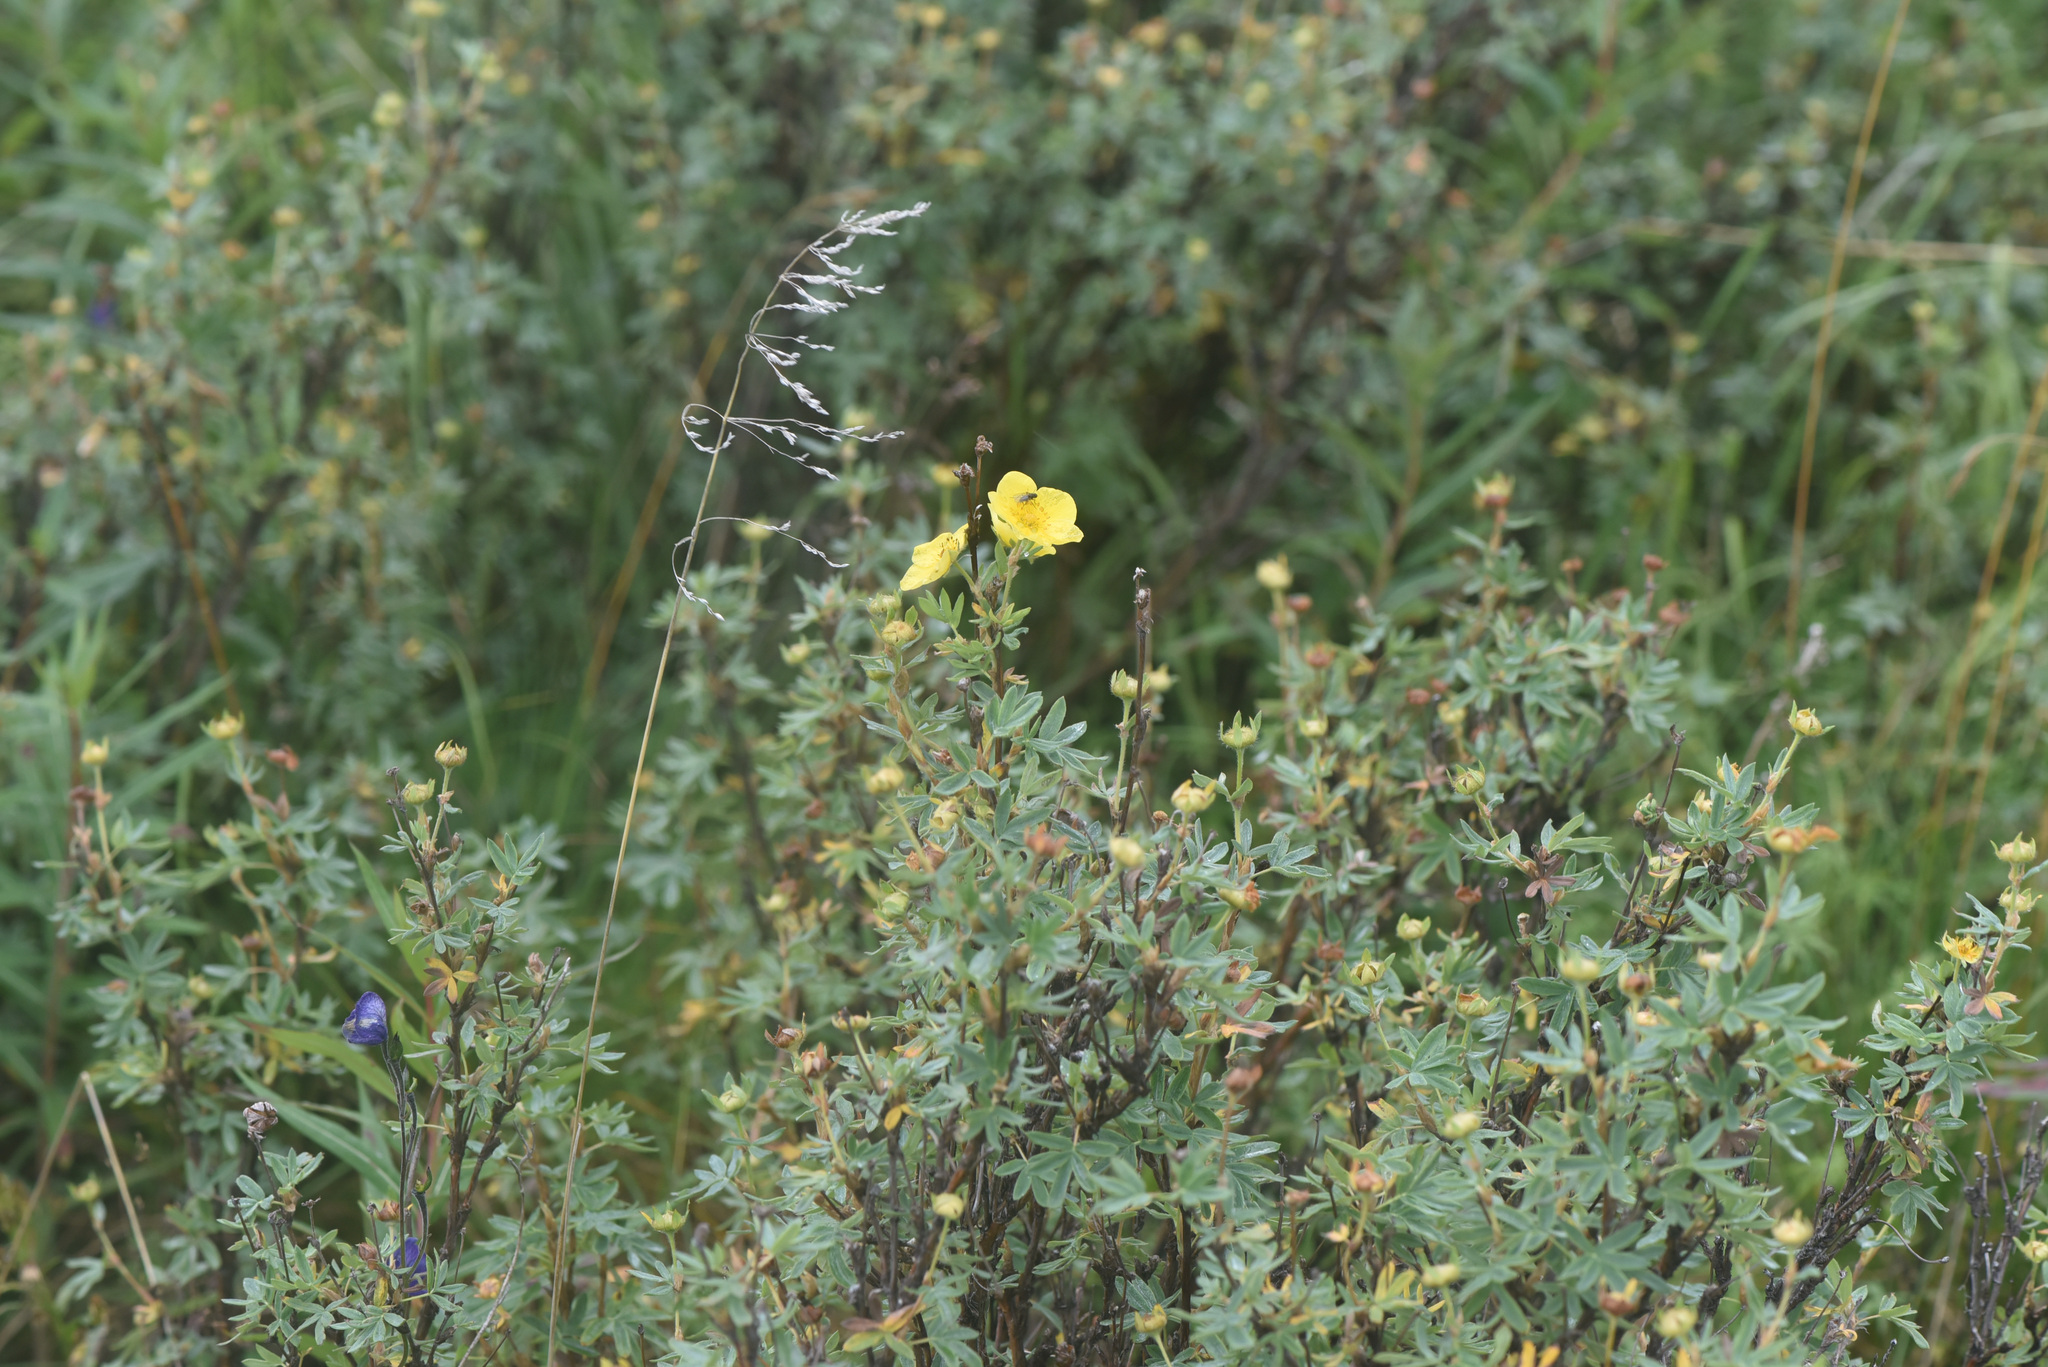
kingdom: Plantae
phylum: Tracheophyta
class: Magnoliopsida
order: Rosales
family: Rosaceae
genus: Dasiphora
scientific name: Dasiphora fruticosa
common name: Shrubby cinquefoil
